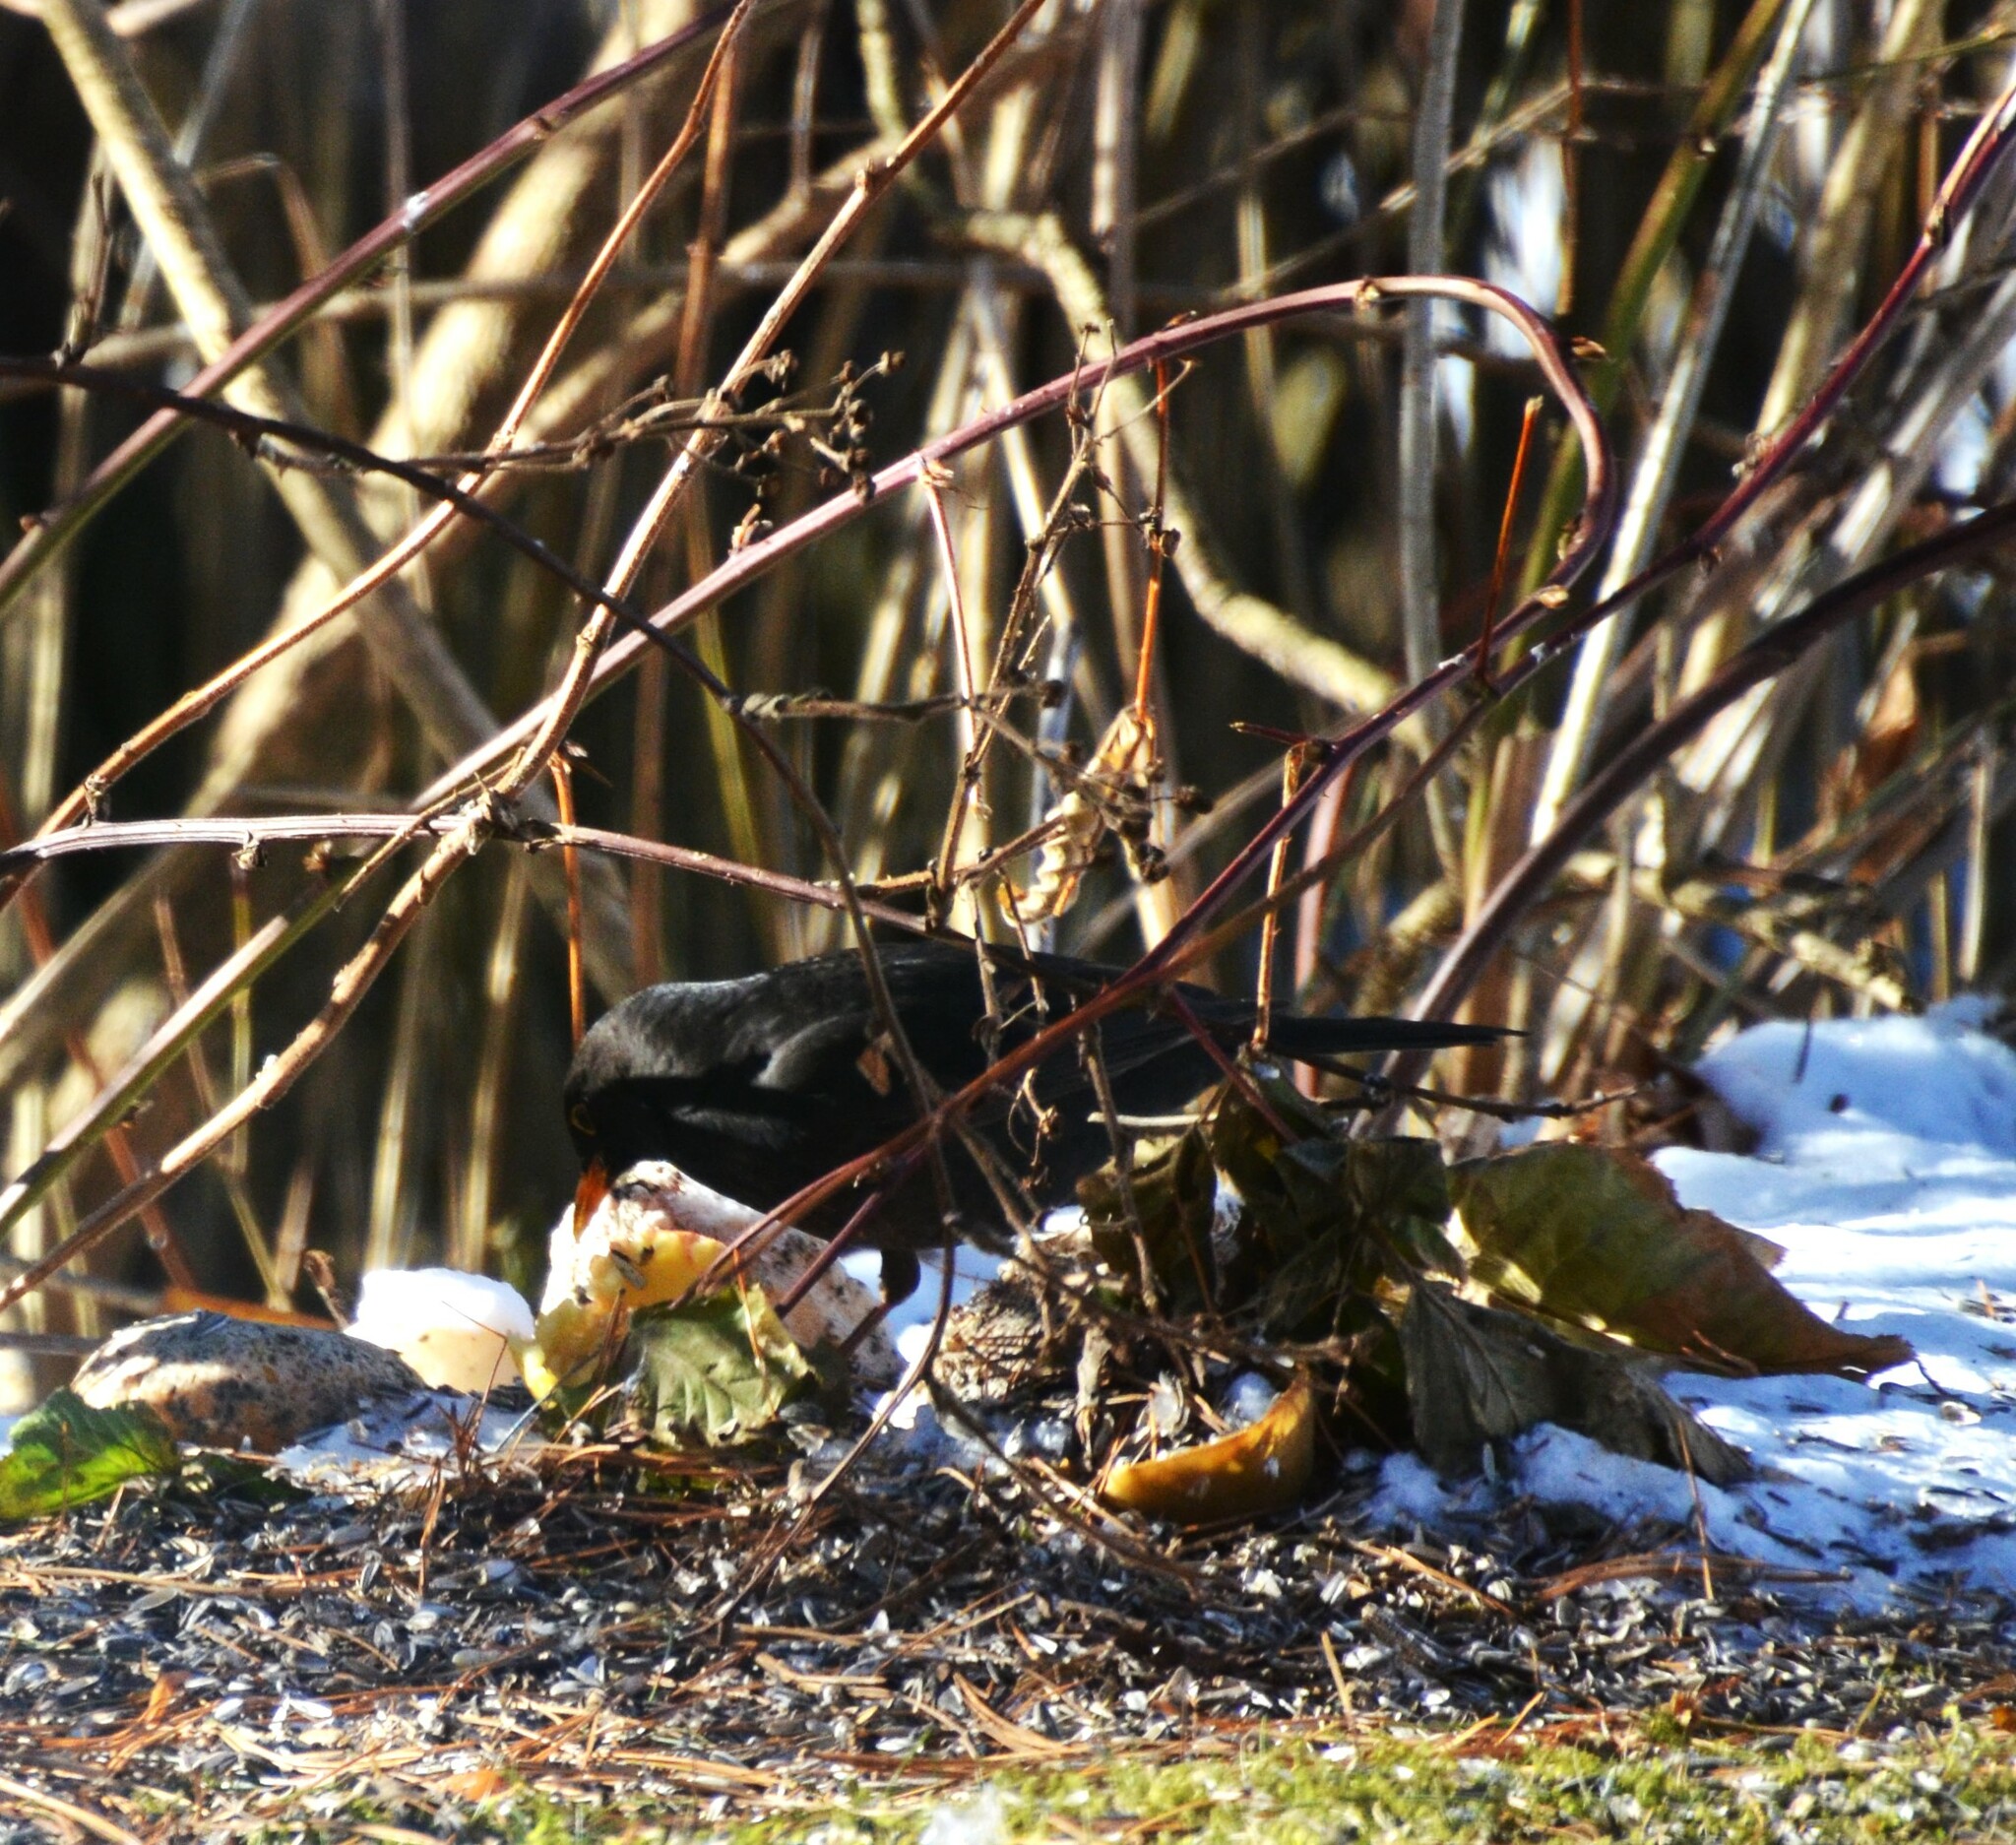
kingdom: Animalia
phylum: Chordata
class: Aves
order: Passeriformes
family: Turdidae
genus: Turdus
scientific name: Turdus merula
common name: Common blackbird
